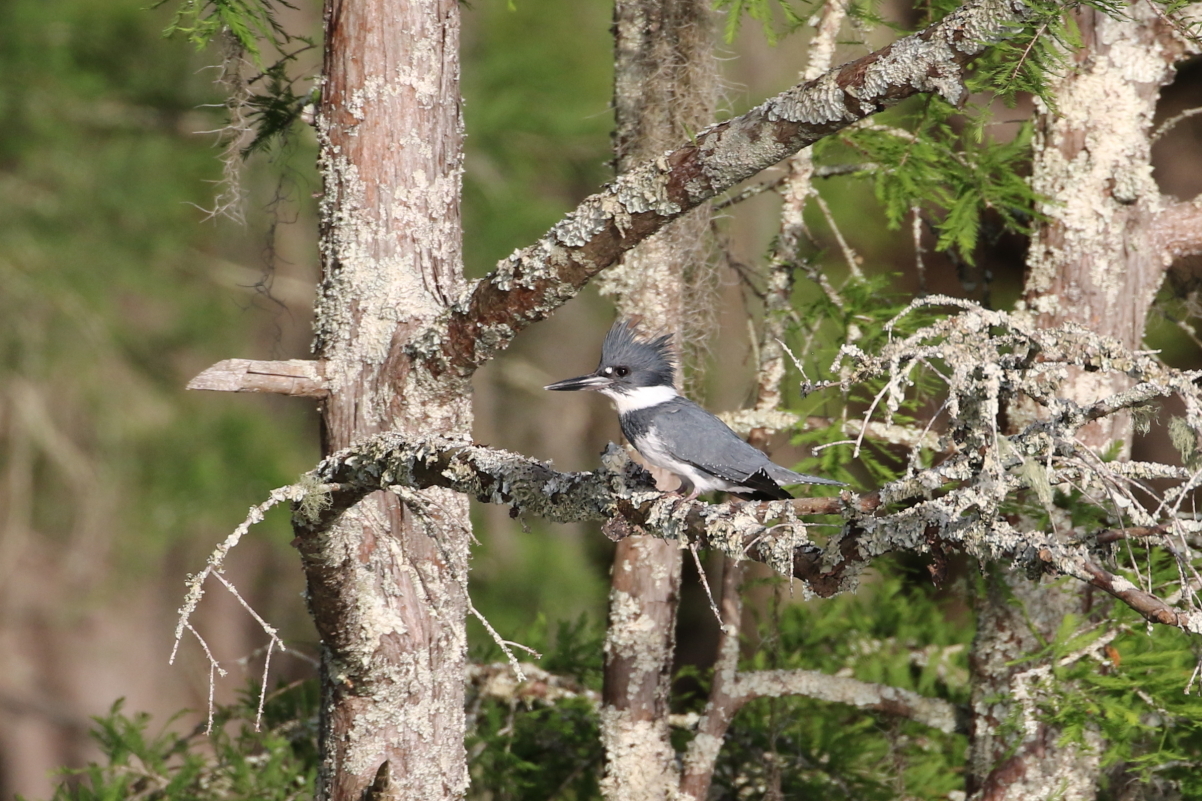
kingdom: Animalia
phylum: Chordata
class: Aves
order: Coraciiformes
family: Alcedinidae
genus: Megaceryle
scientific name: Megaceryle alcyon
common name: Belted kingfisher
